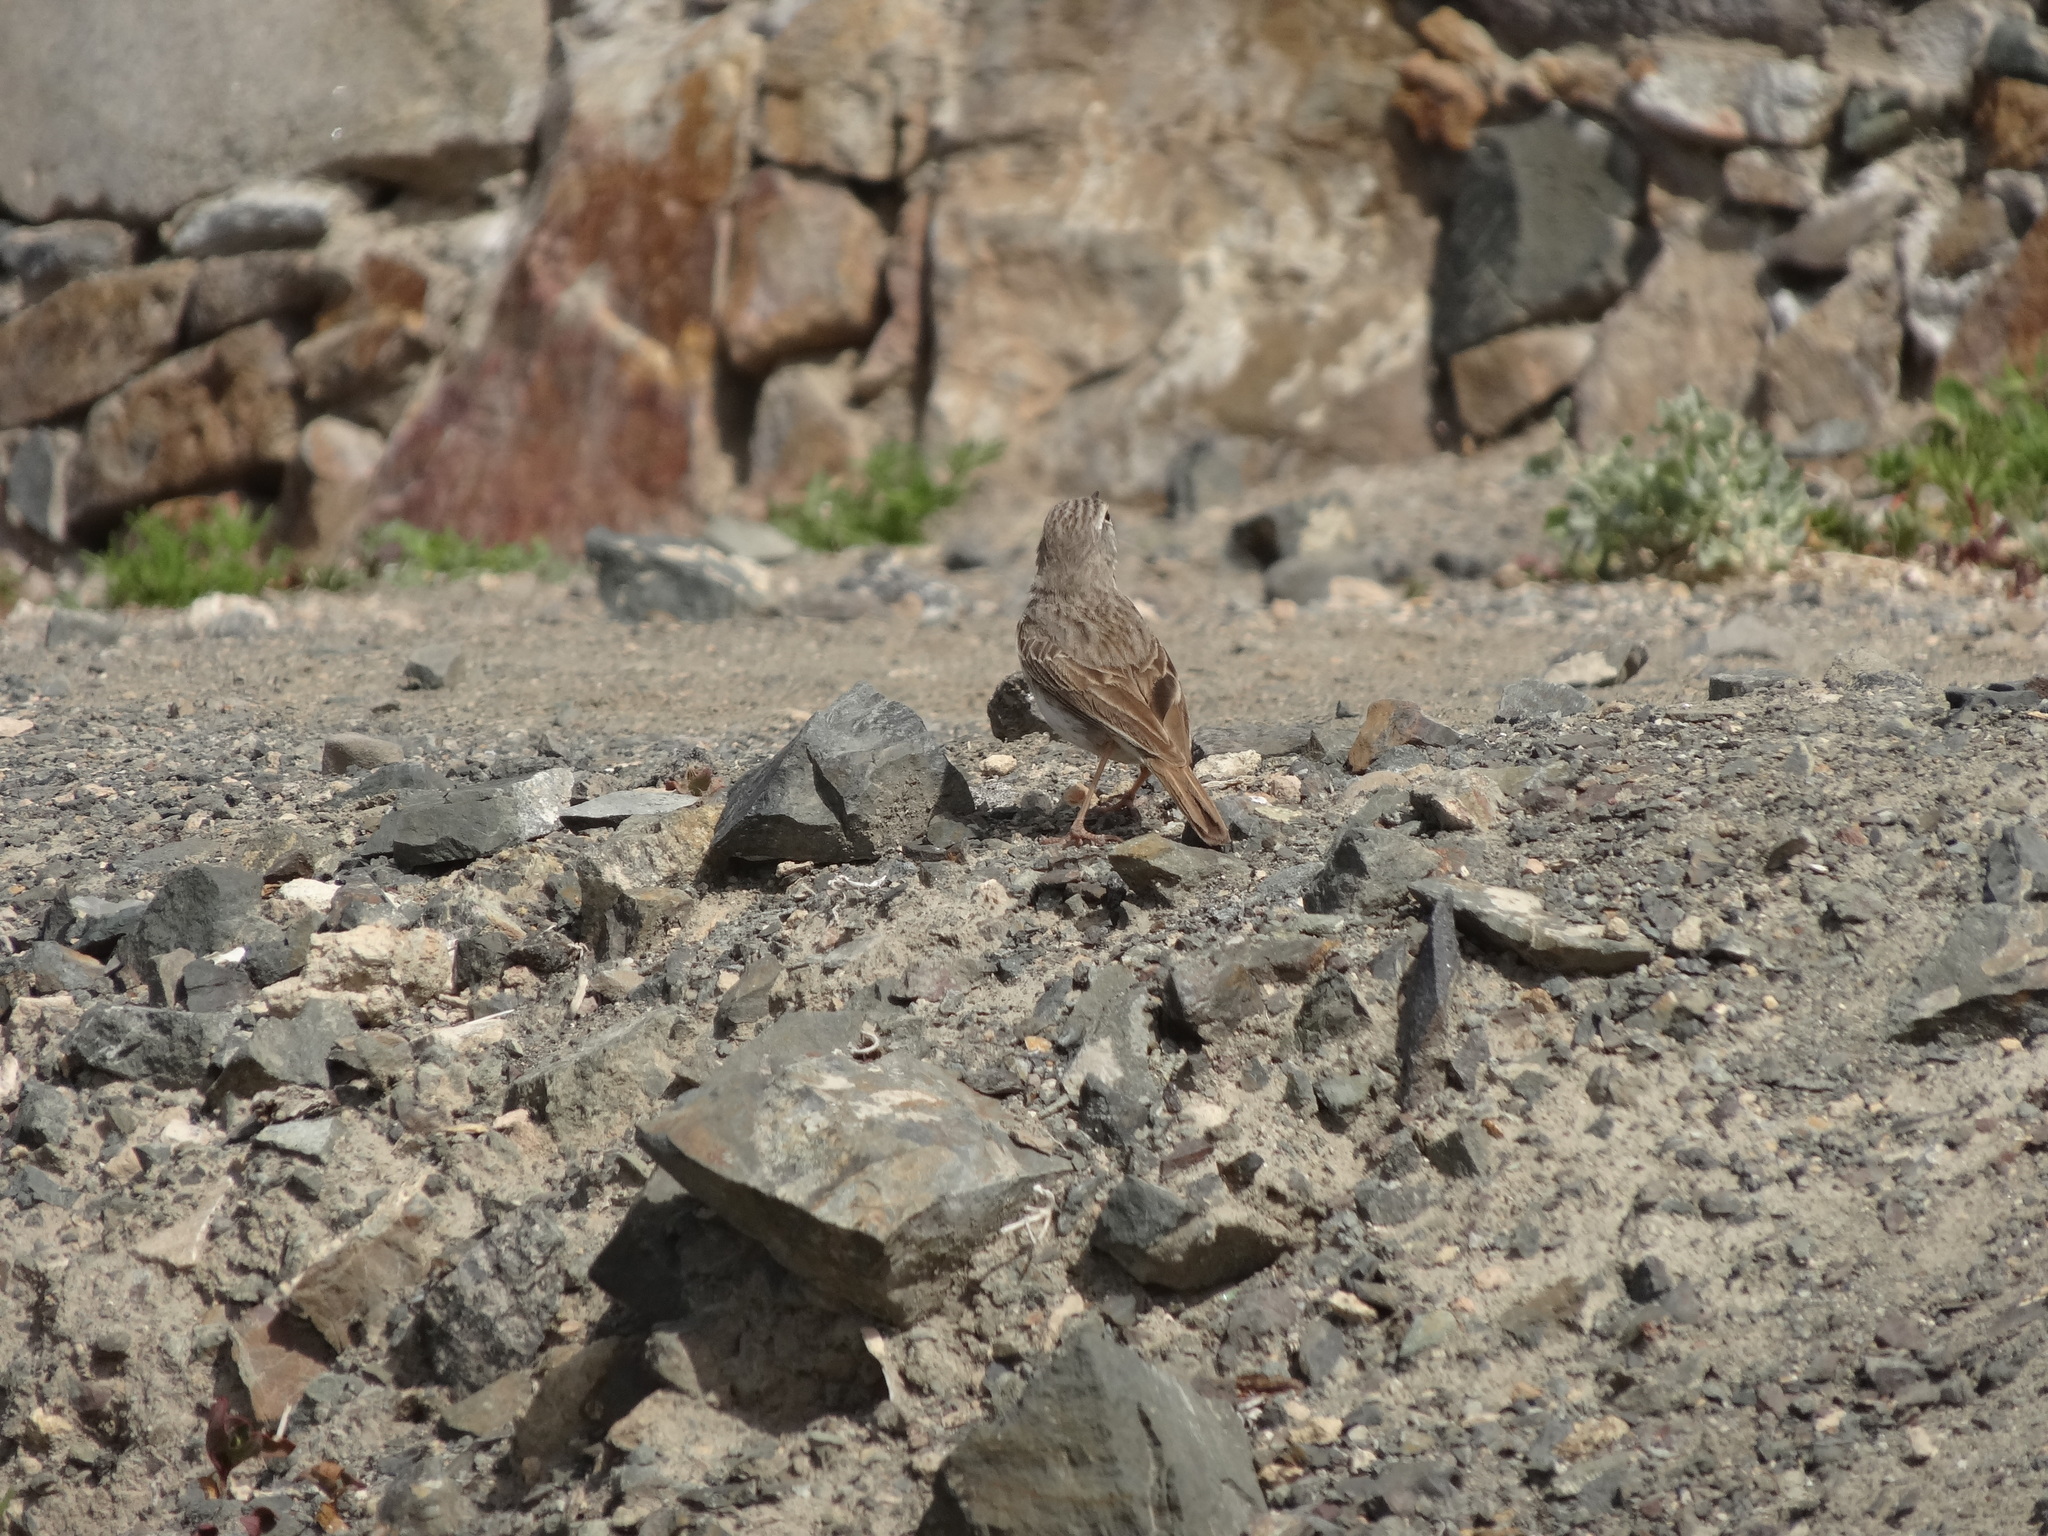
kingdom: Animalia
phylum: Chordata
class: Aves
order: Passeriformes
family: Motacillidae
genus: Anthus
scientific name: Anthus berthelotii
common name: Berthelot's pipit
